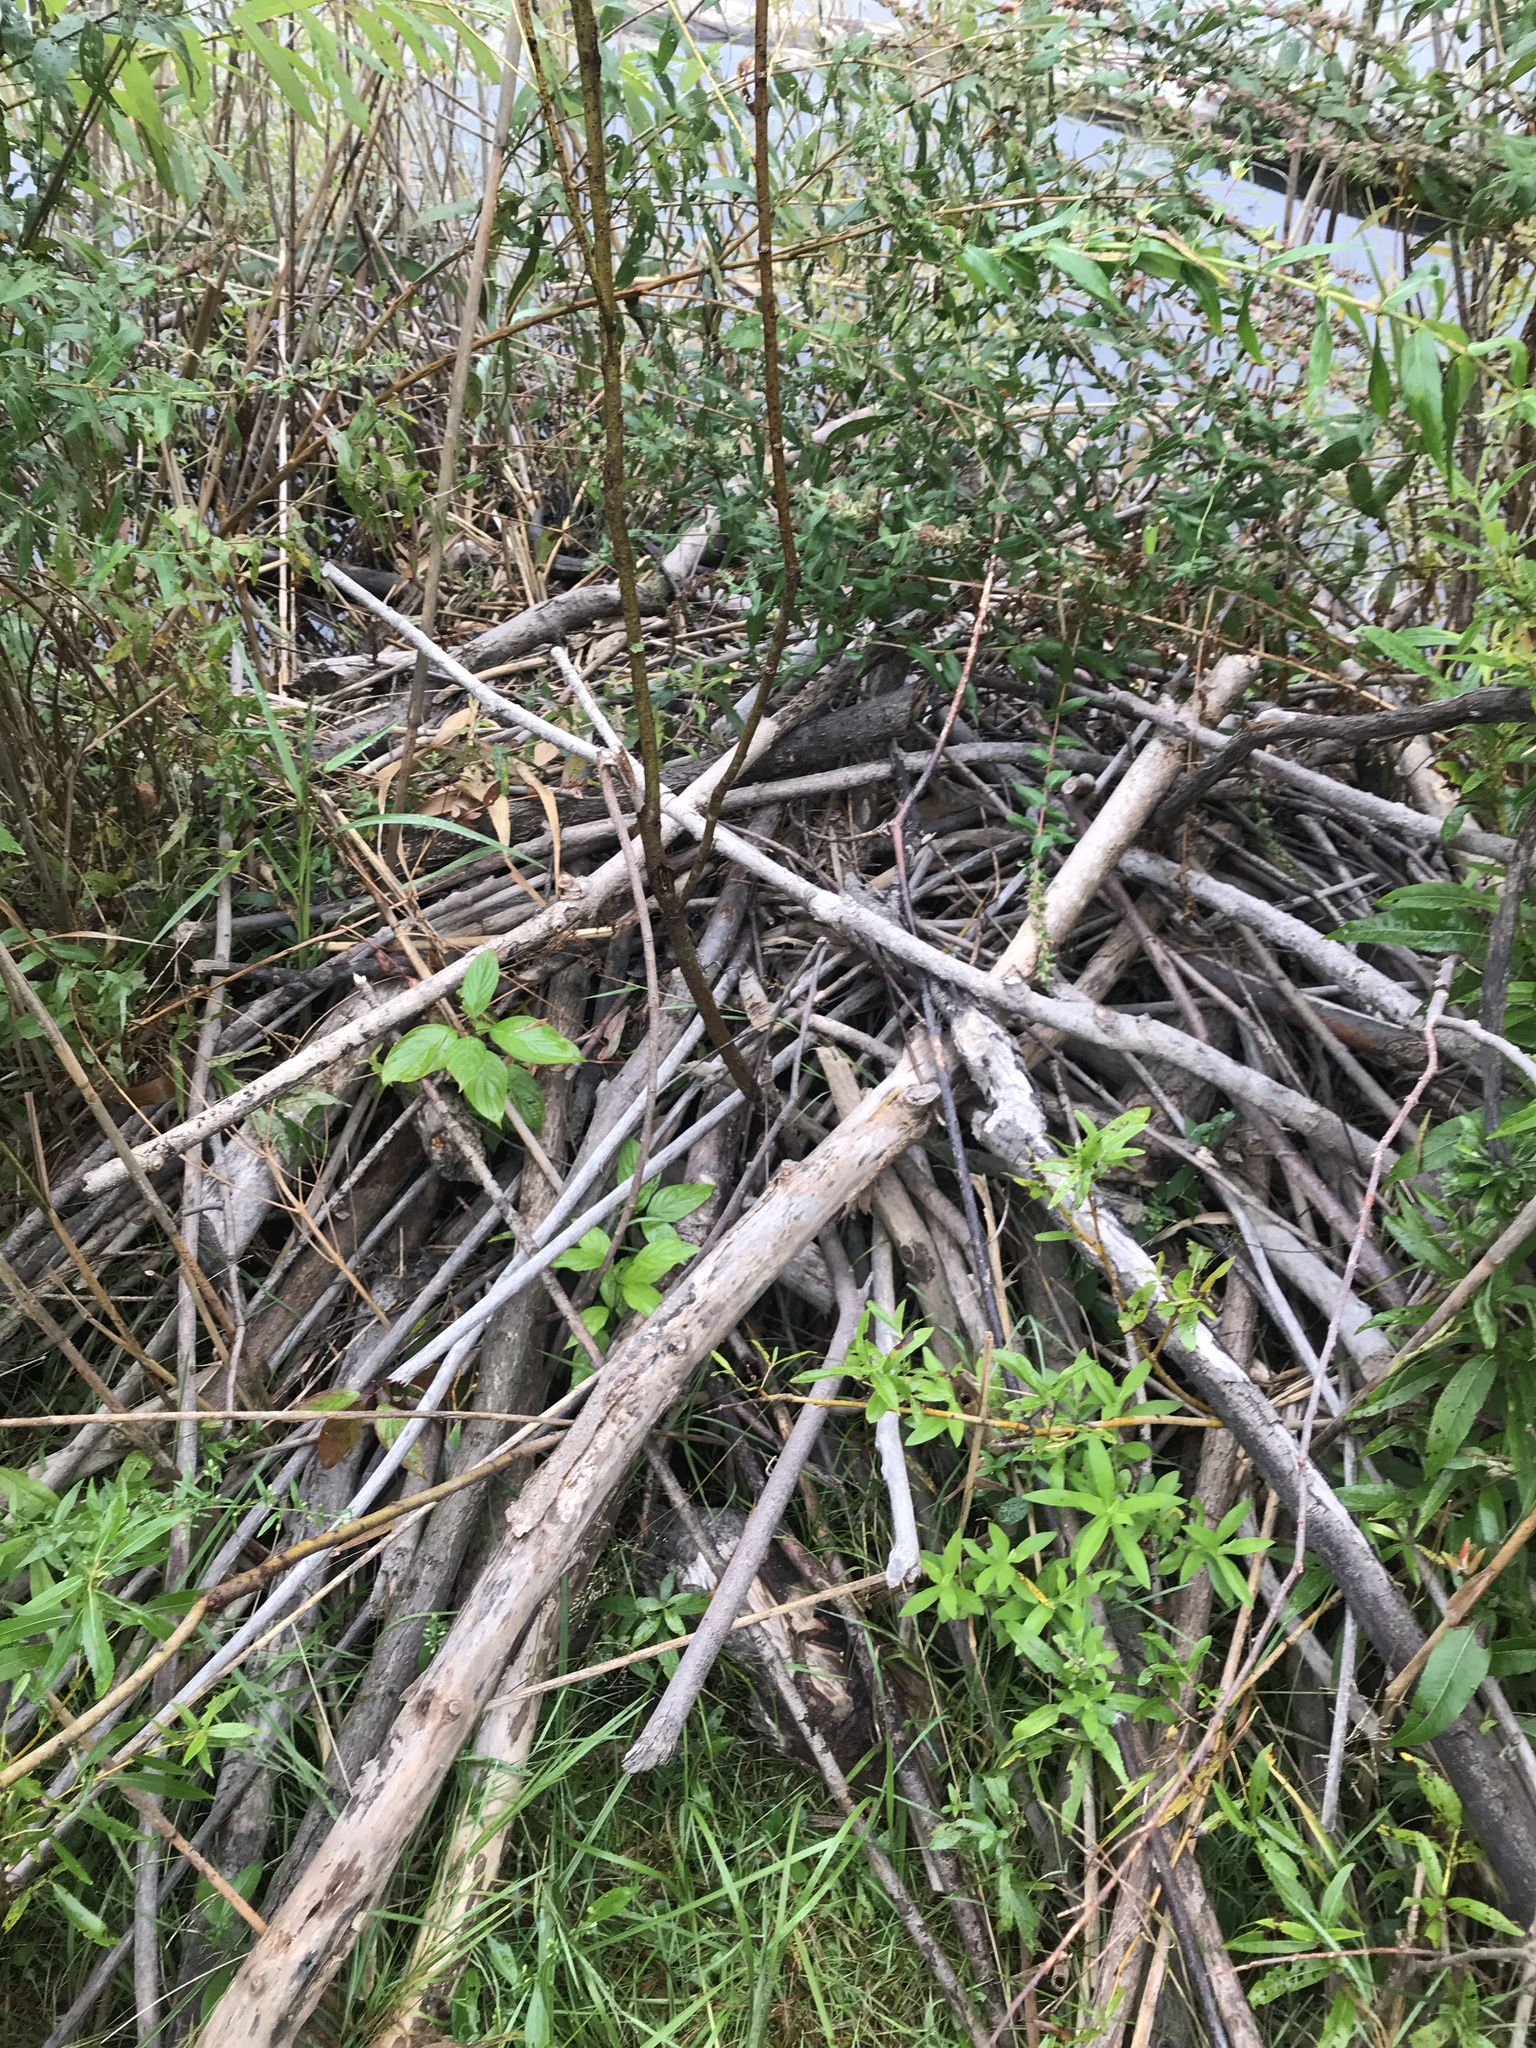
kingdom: Animalia
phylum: Chordata
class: Mammalia
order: Rodentia
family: Castoridae
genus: Castor
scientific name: Castor canadensis
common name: American beaver
